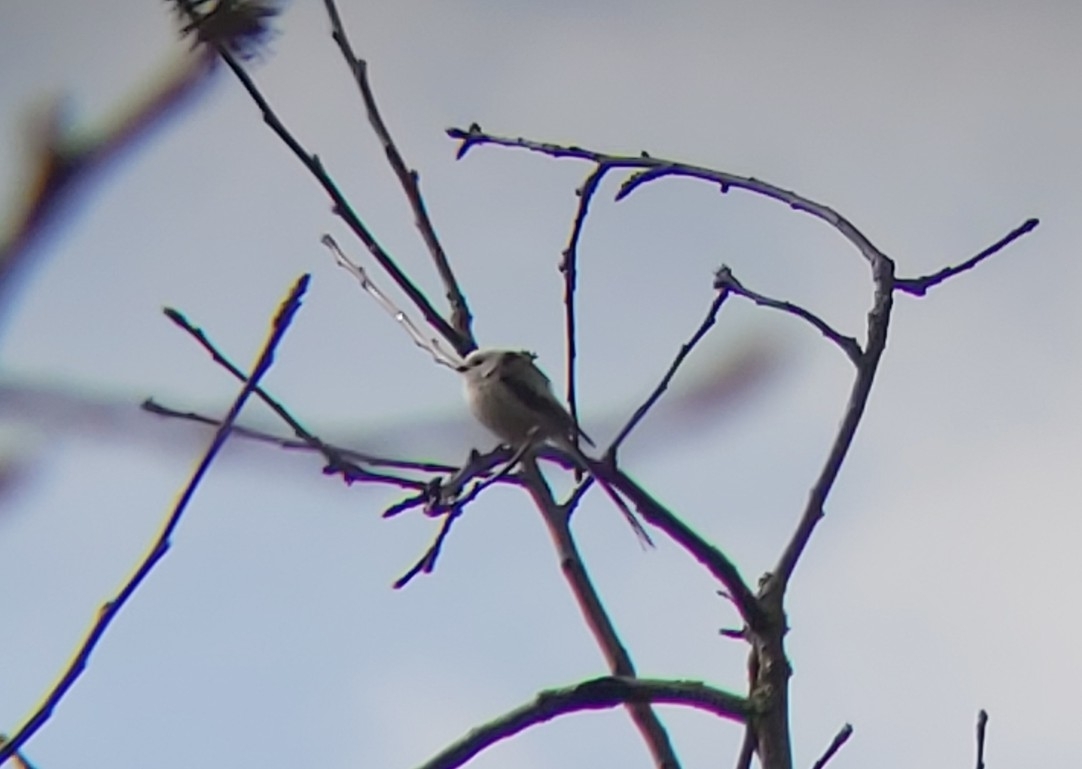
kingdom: Animalia
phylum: Chordata
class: Aves
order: Passeriformes
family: Aegithalidae
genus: Aegithalos
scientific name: Aegithalos caudatus
